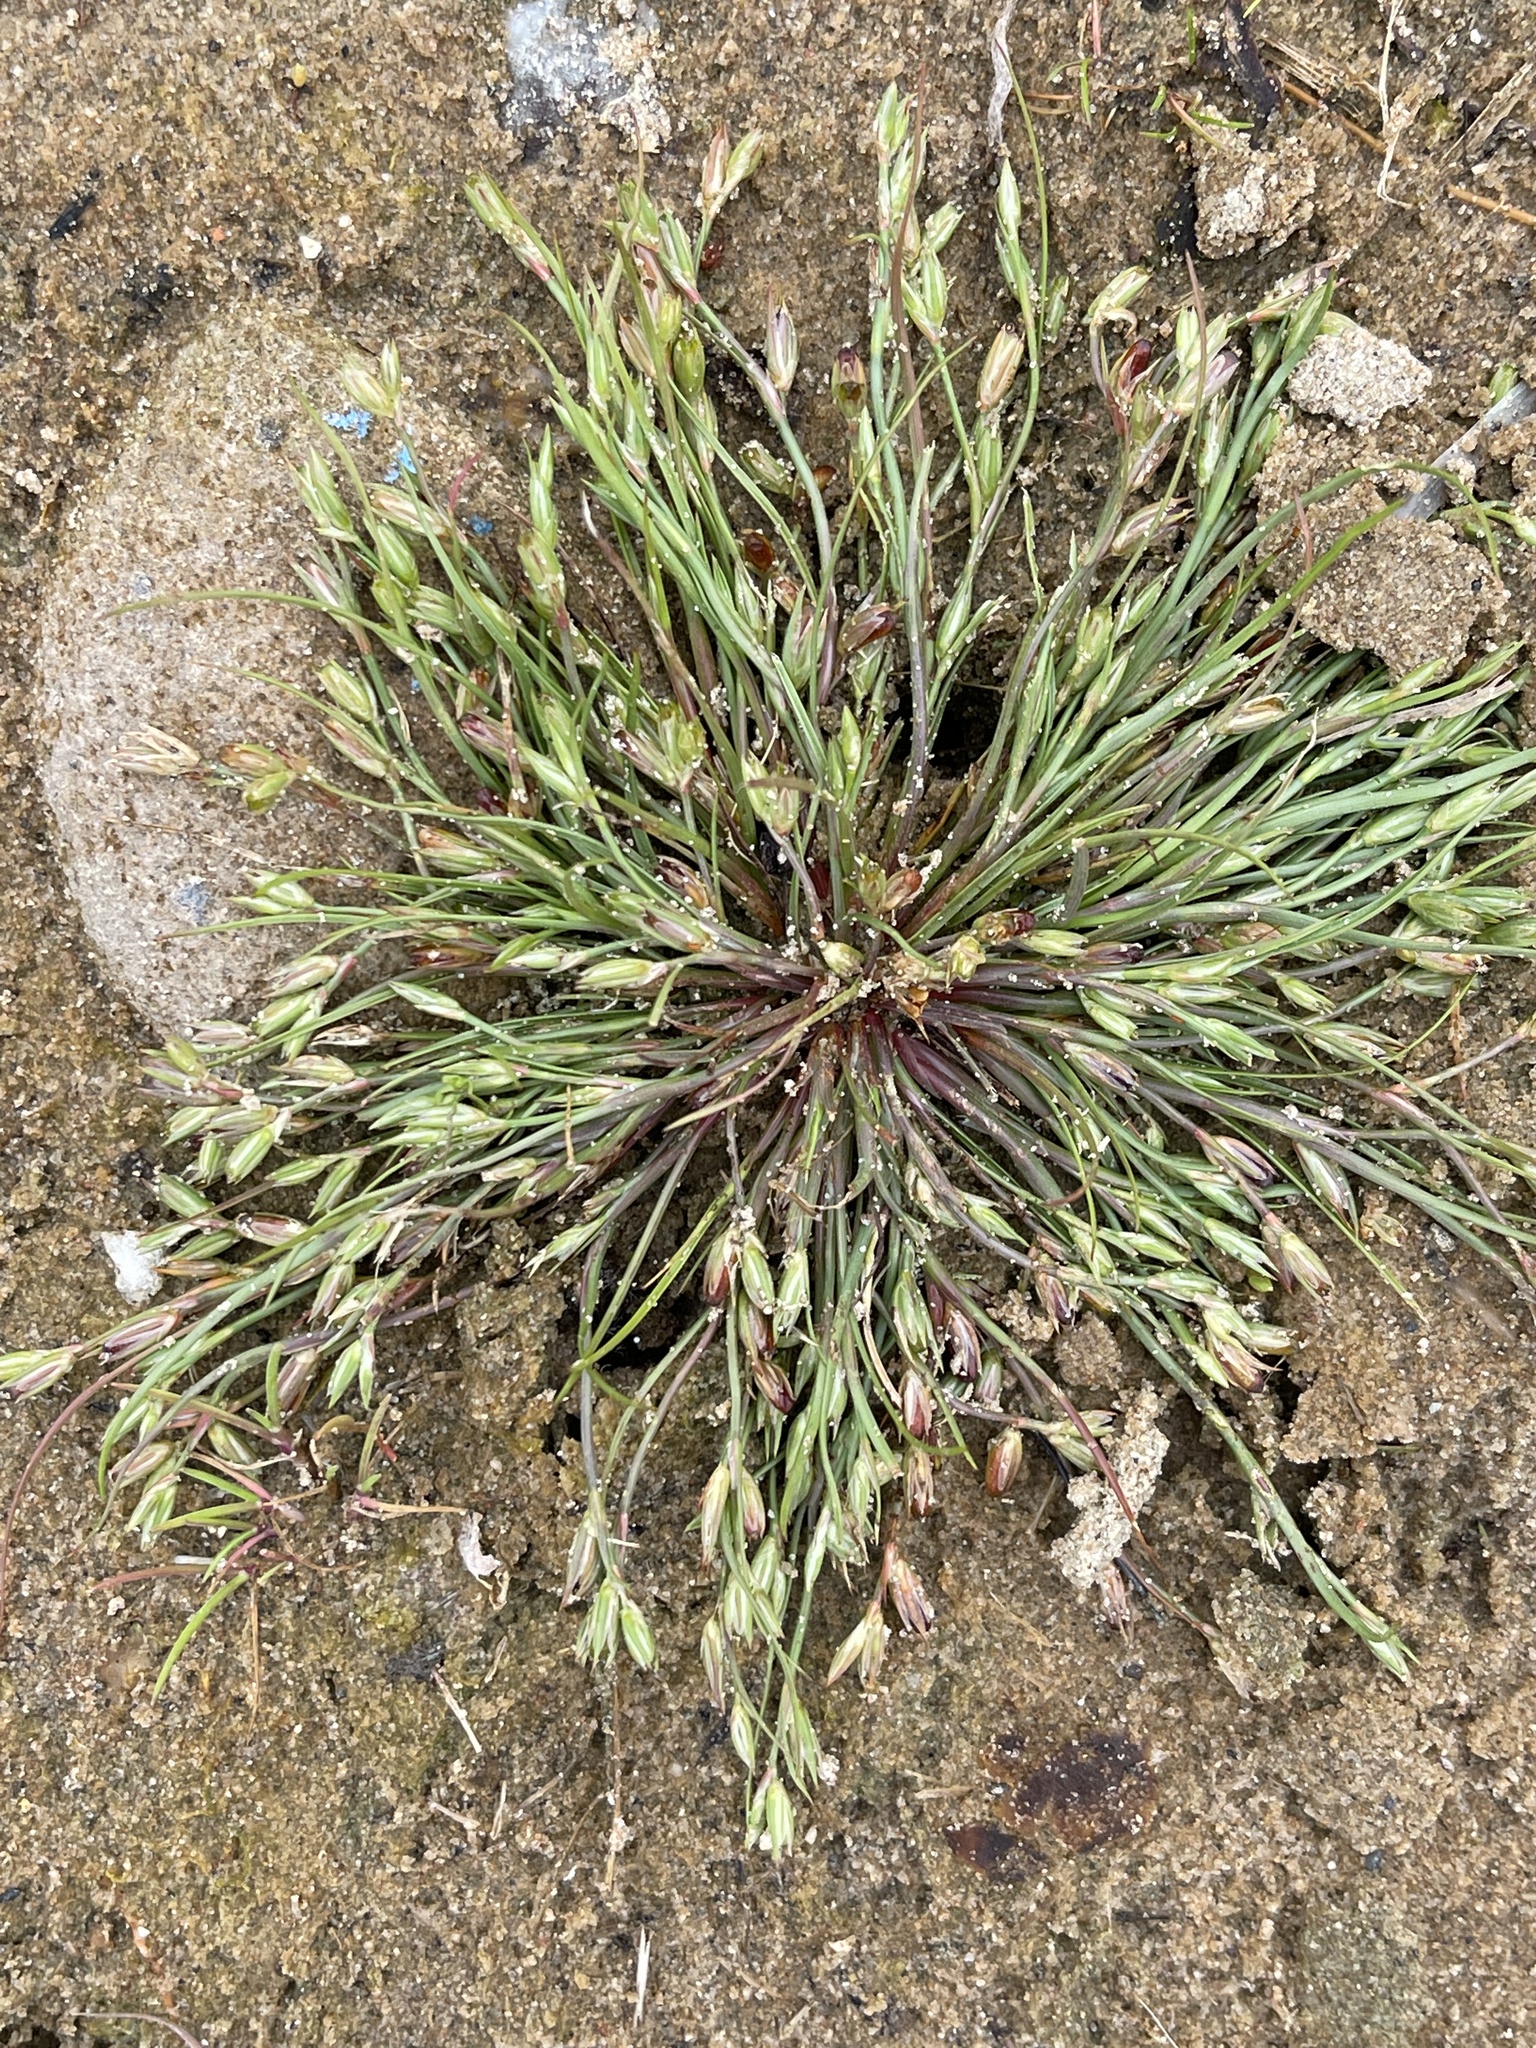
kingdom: Plantae
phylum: Tracheophyta
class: Liliopsida
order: Poales
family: Juncaceae
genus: Juncus
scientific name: Juncus ranarius
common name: Frog rush
